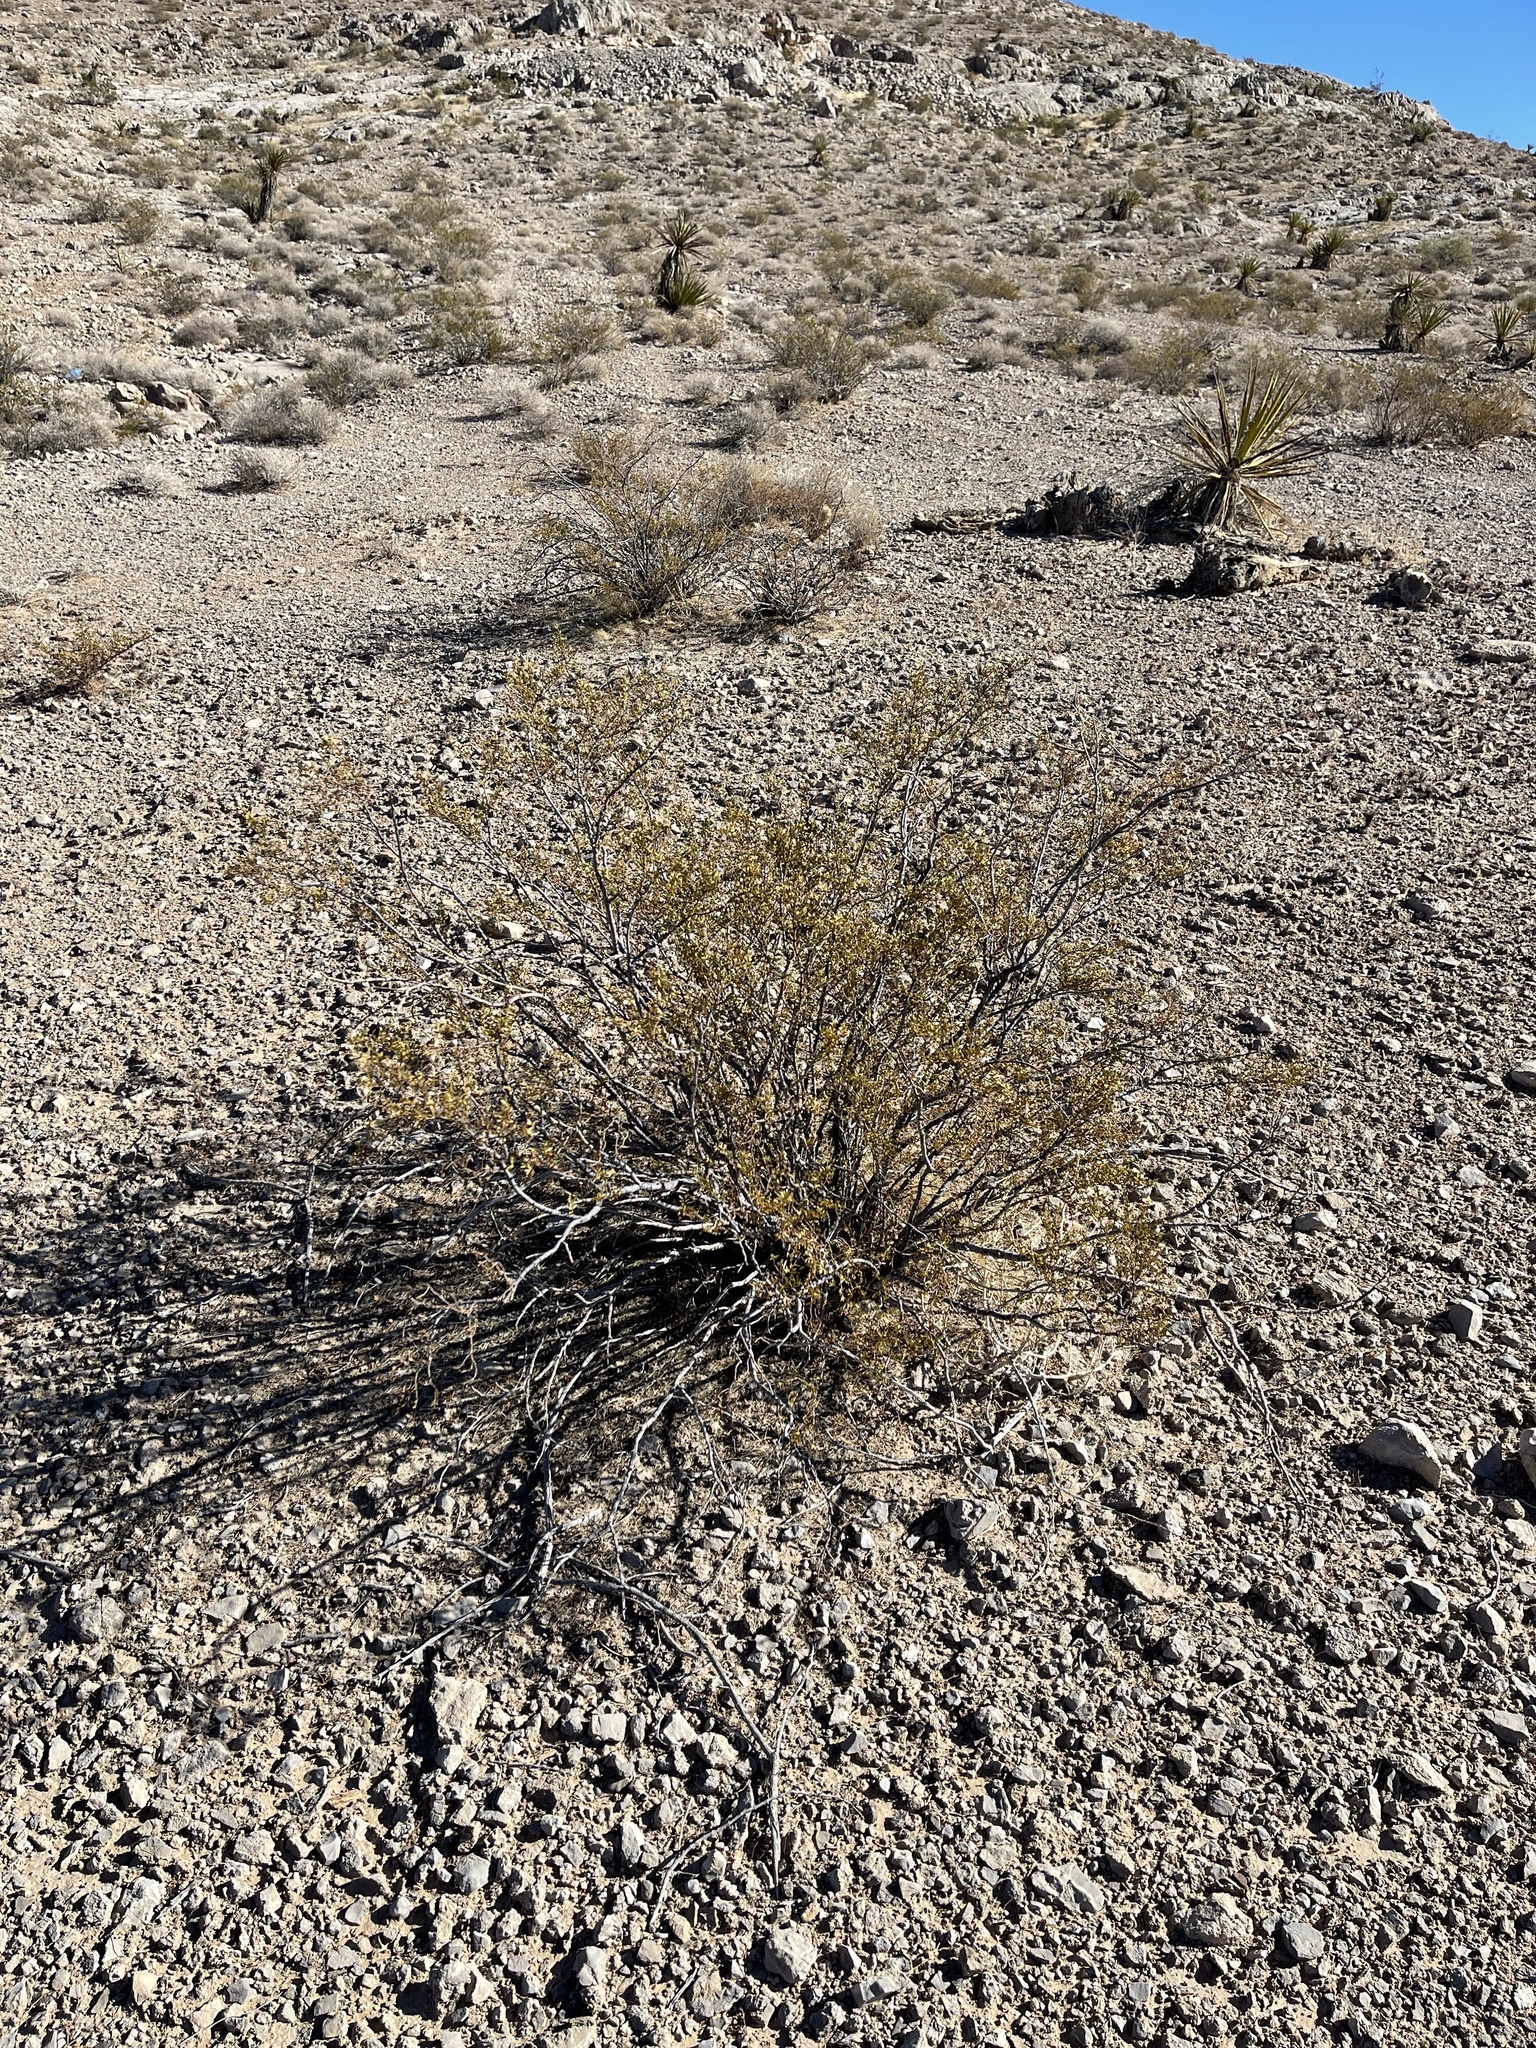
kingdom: Plantae
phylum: Tracheophyta
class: Magnoliopsida
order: Zygophyllales
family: Zygophyllaceae
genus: Larrea
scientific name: Larrea tridentata
